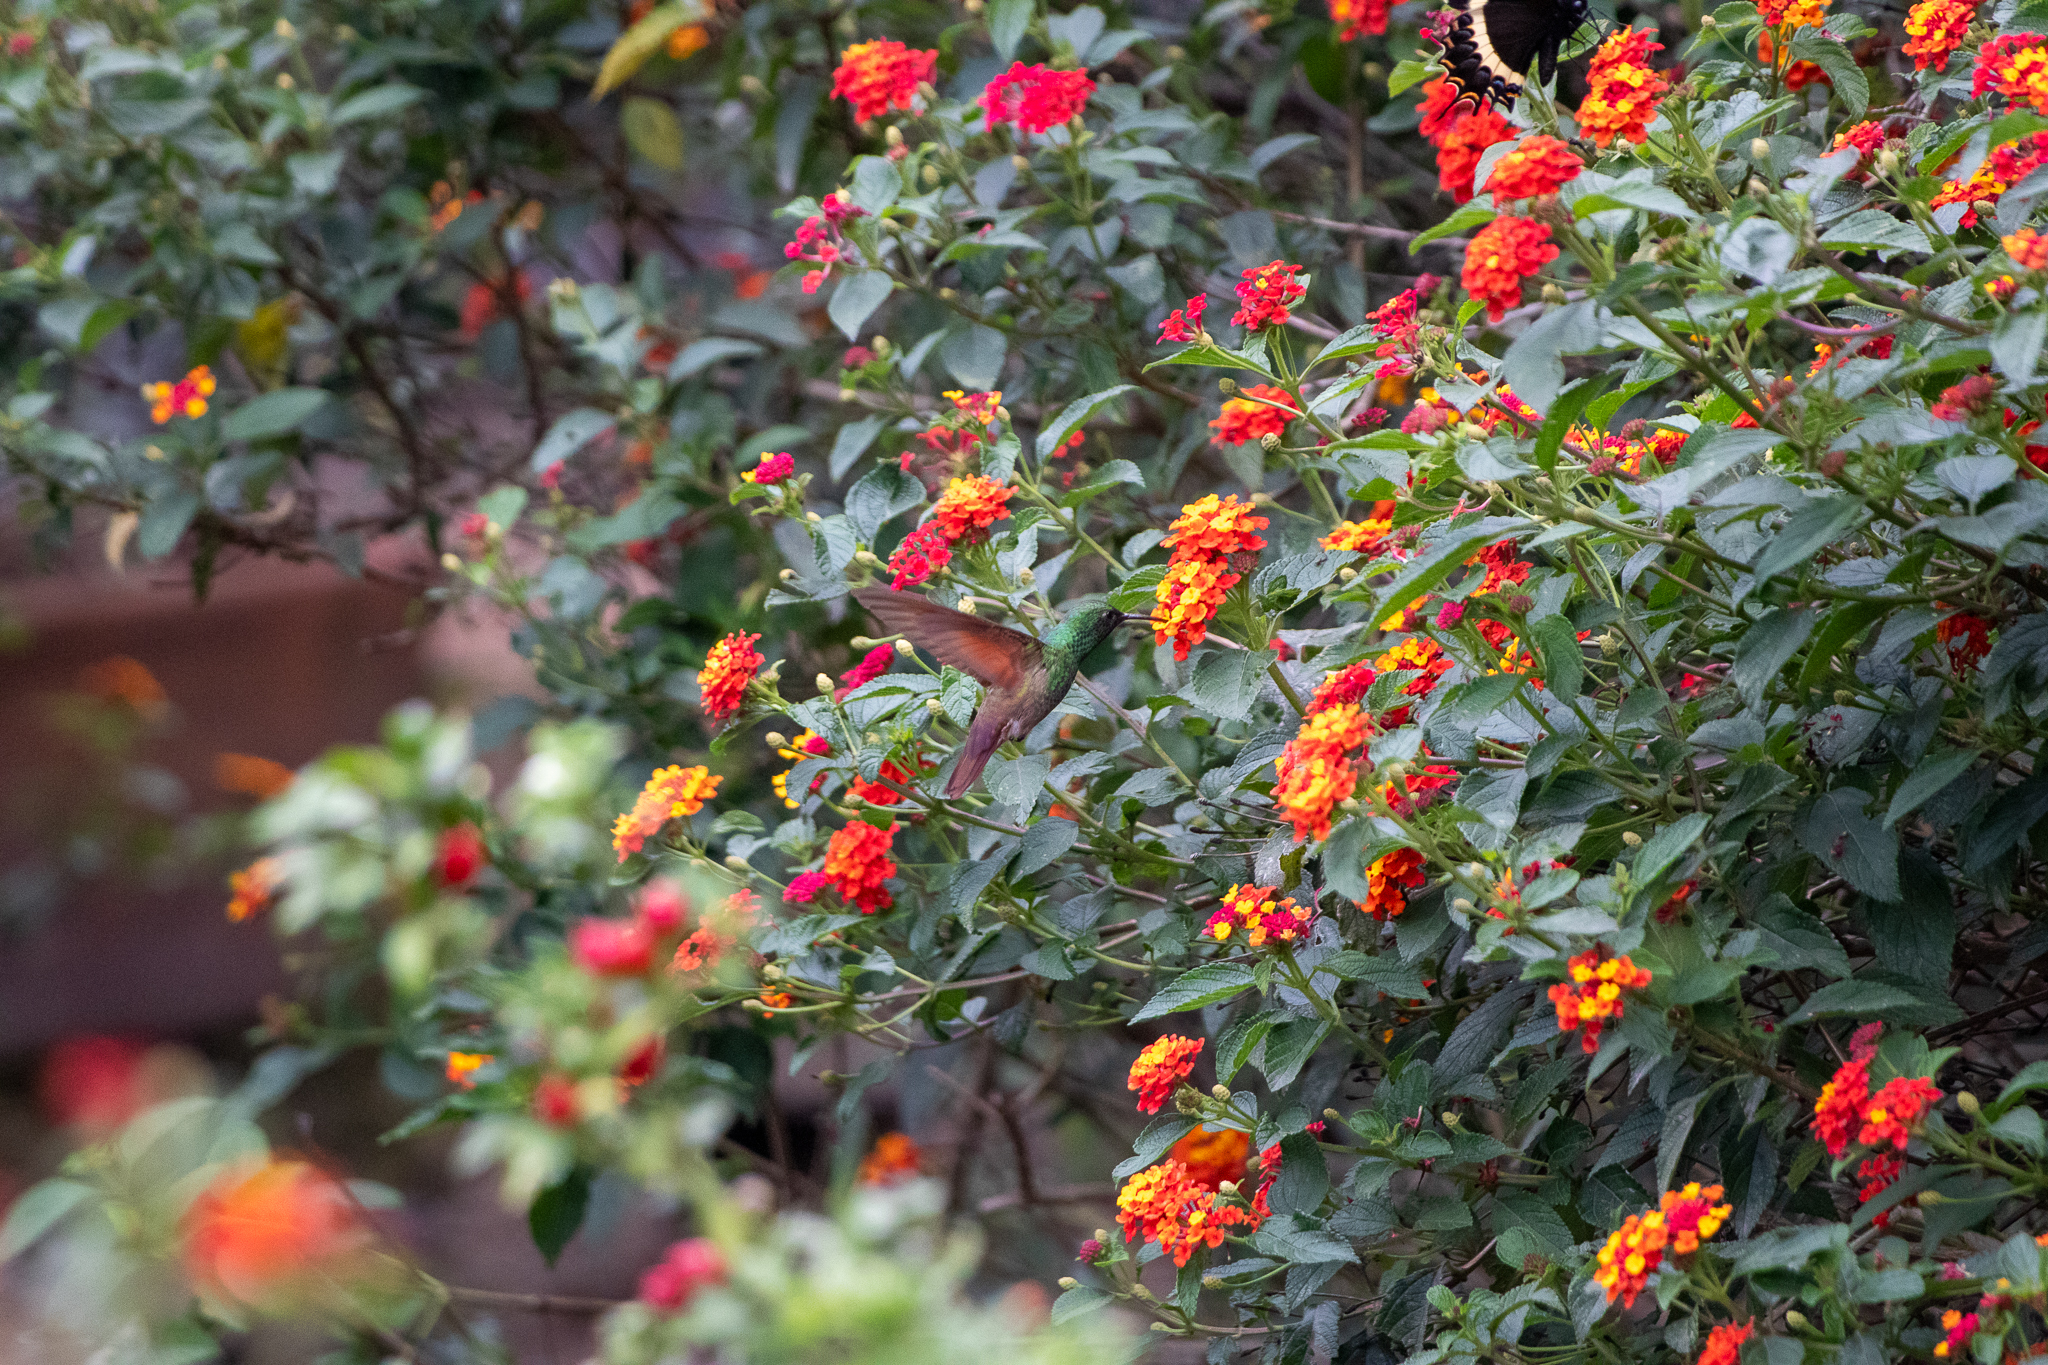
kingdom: Animalia
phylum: Chordata
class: Aves
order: Apodiformes
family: Trochilidae
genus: Saucerottia
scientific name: Saucerottia beryllina
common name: Berylline hummingbird
